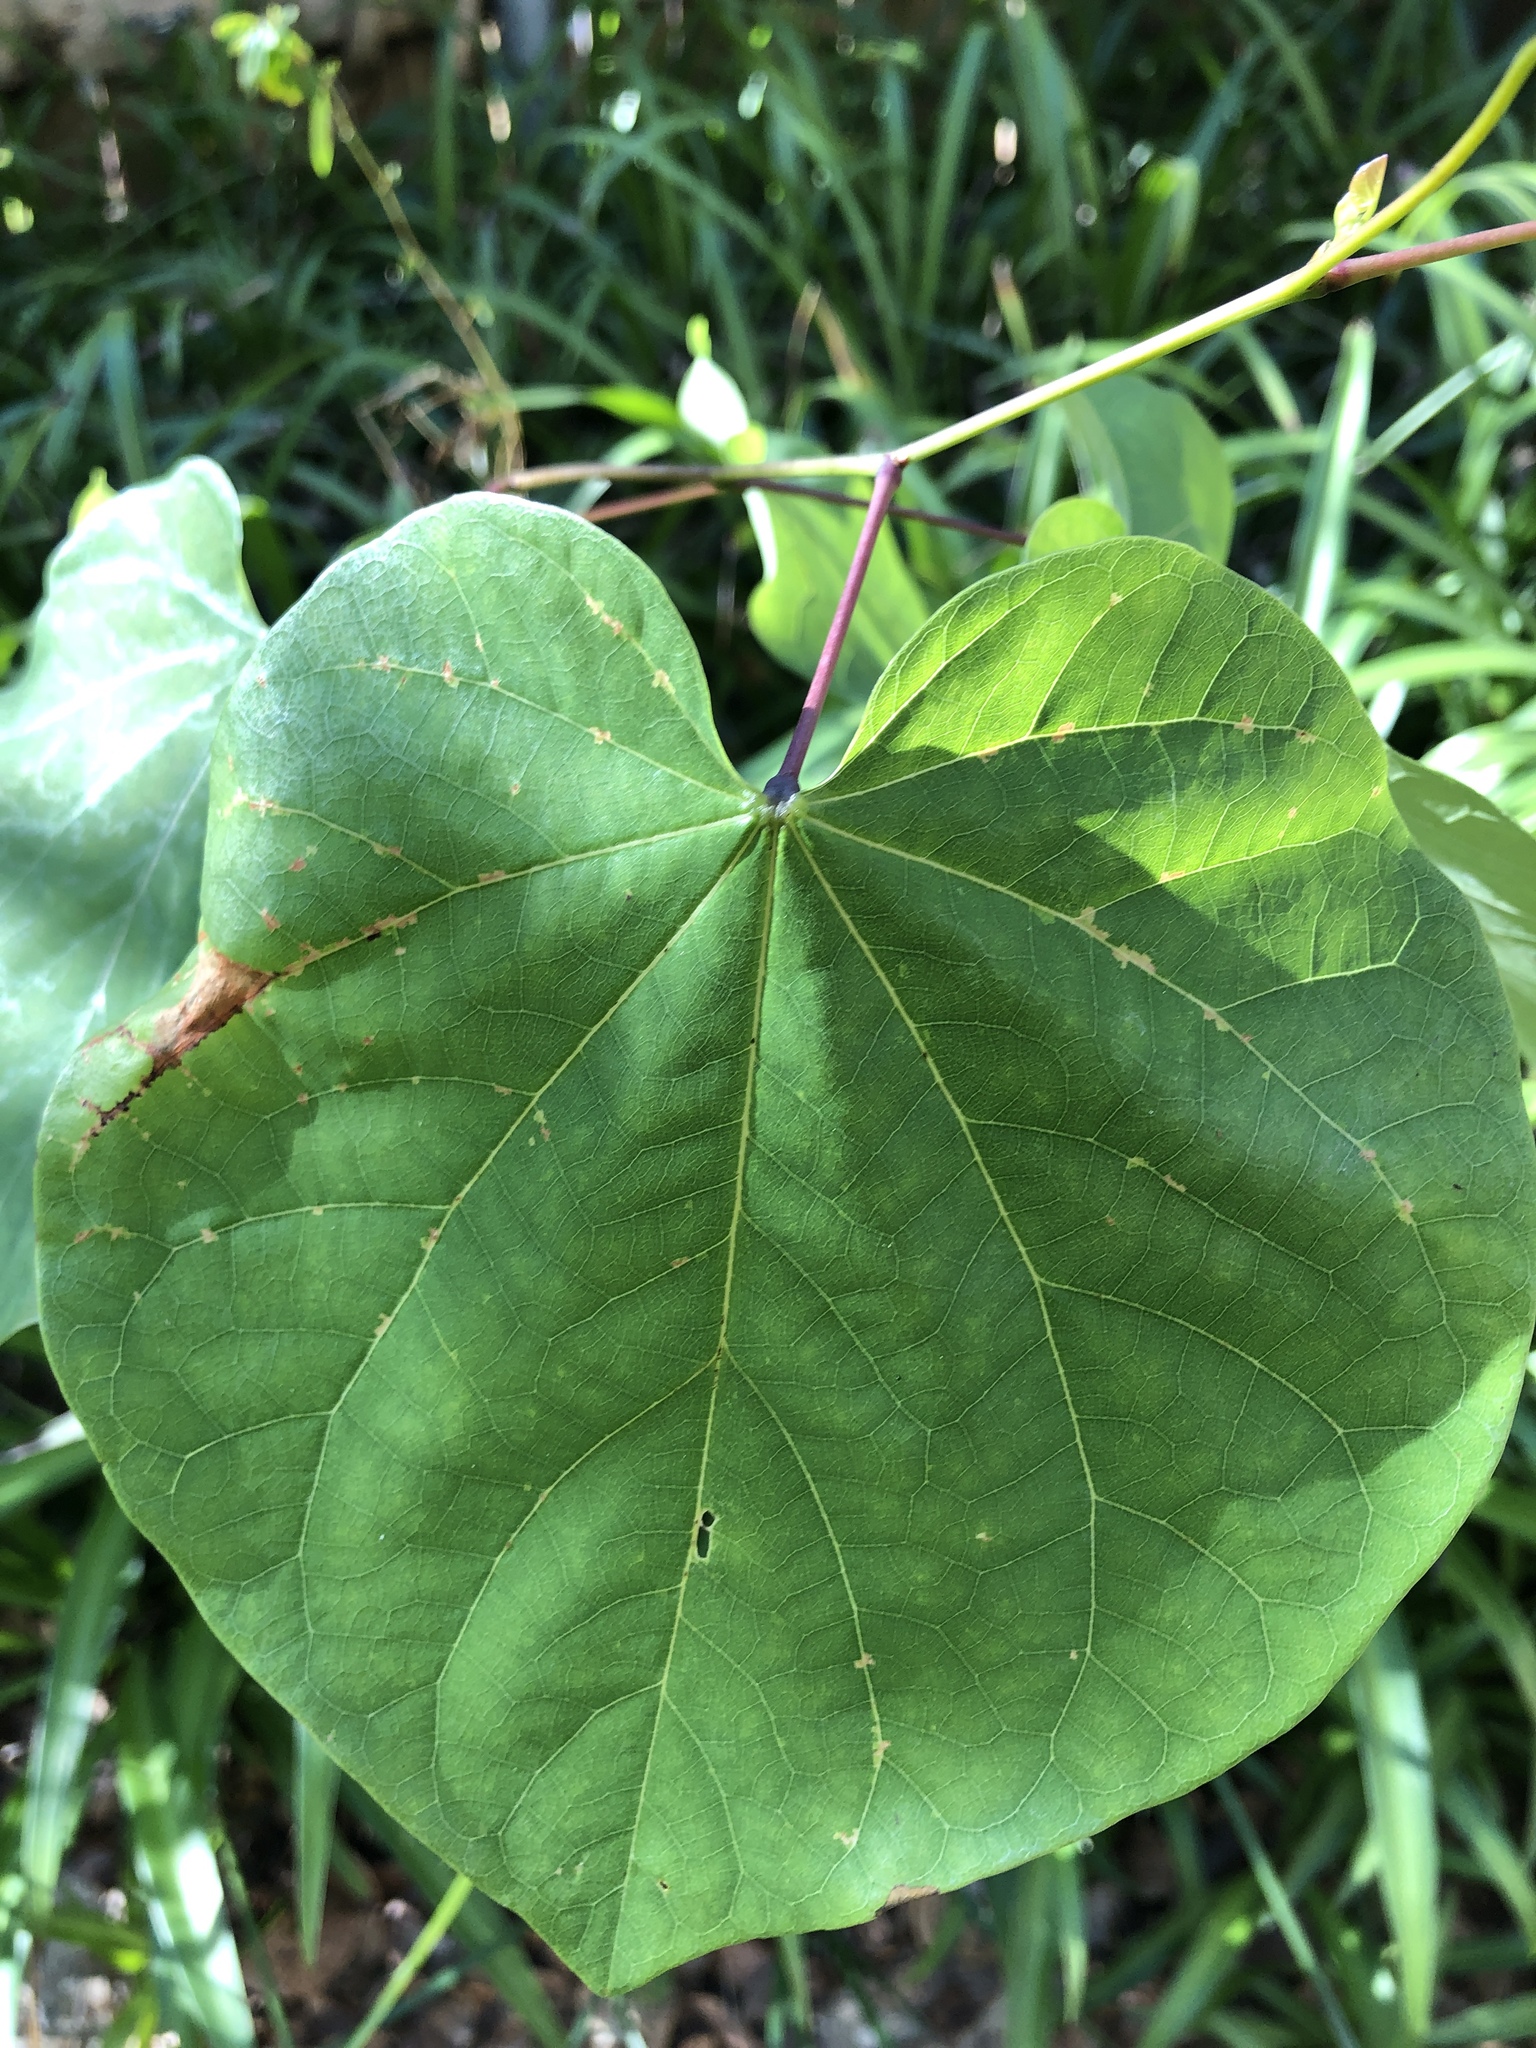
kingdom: Plantae
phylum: Tracheophyta
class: Magnoliopsida
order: Fabales
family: Fabaceae
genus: Cercis
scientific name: Cercis canadensis
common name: Eastern redbud
